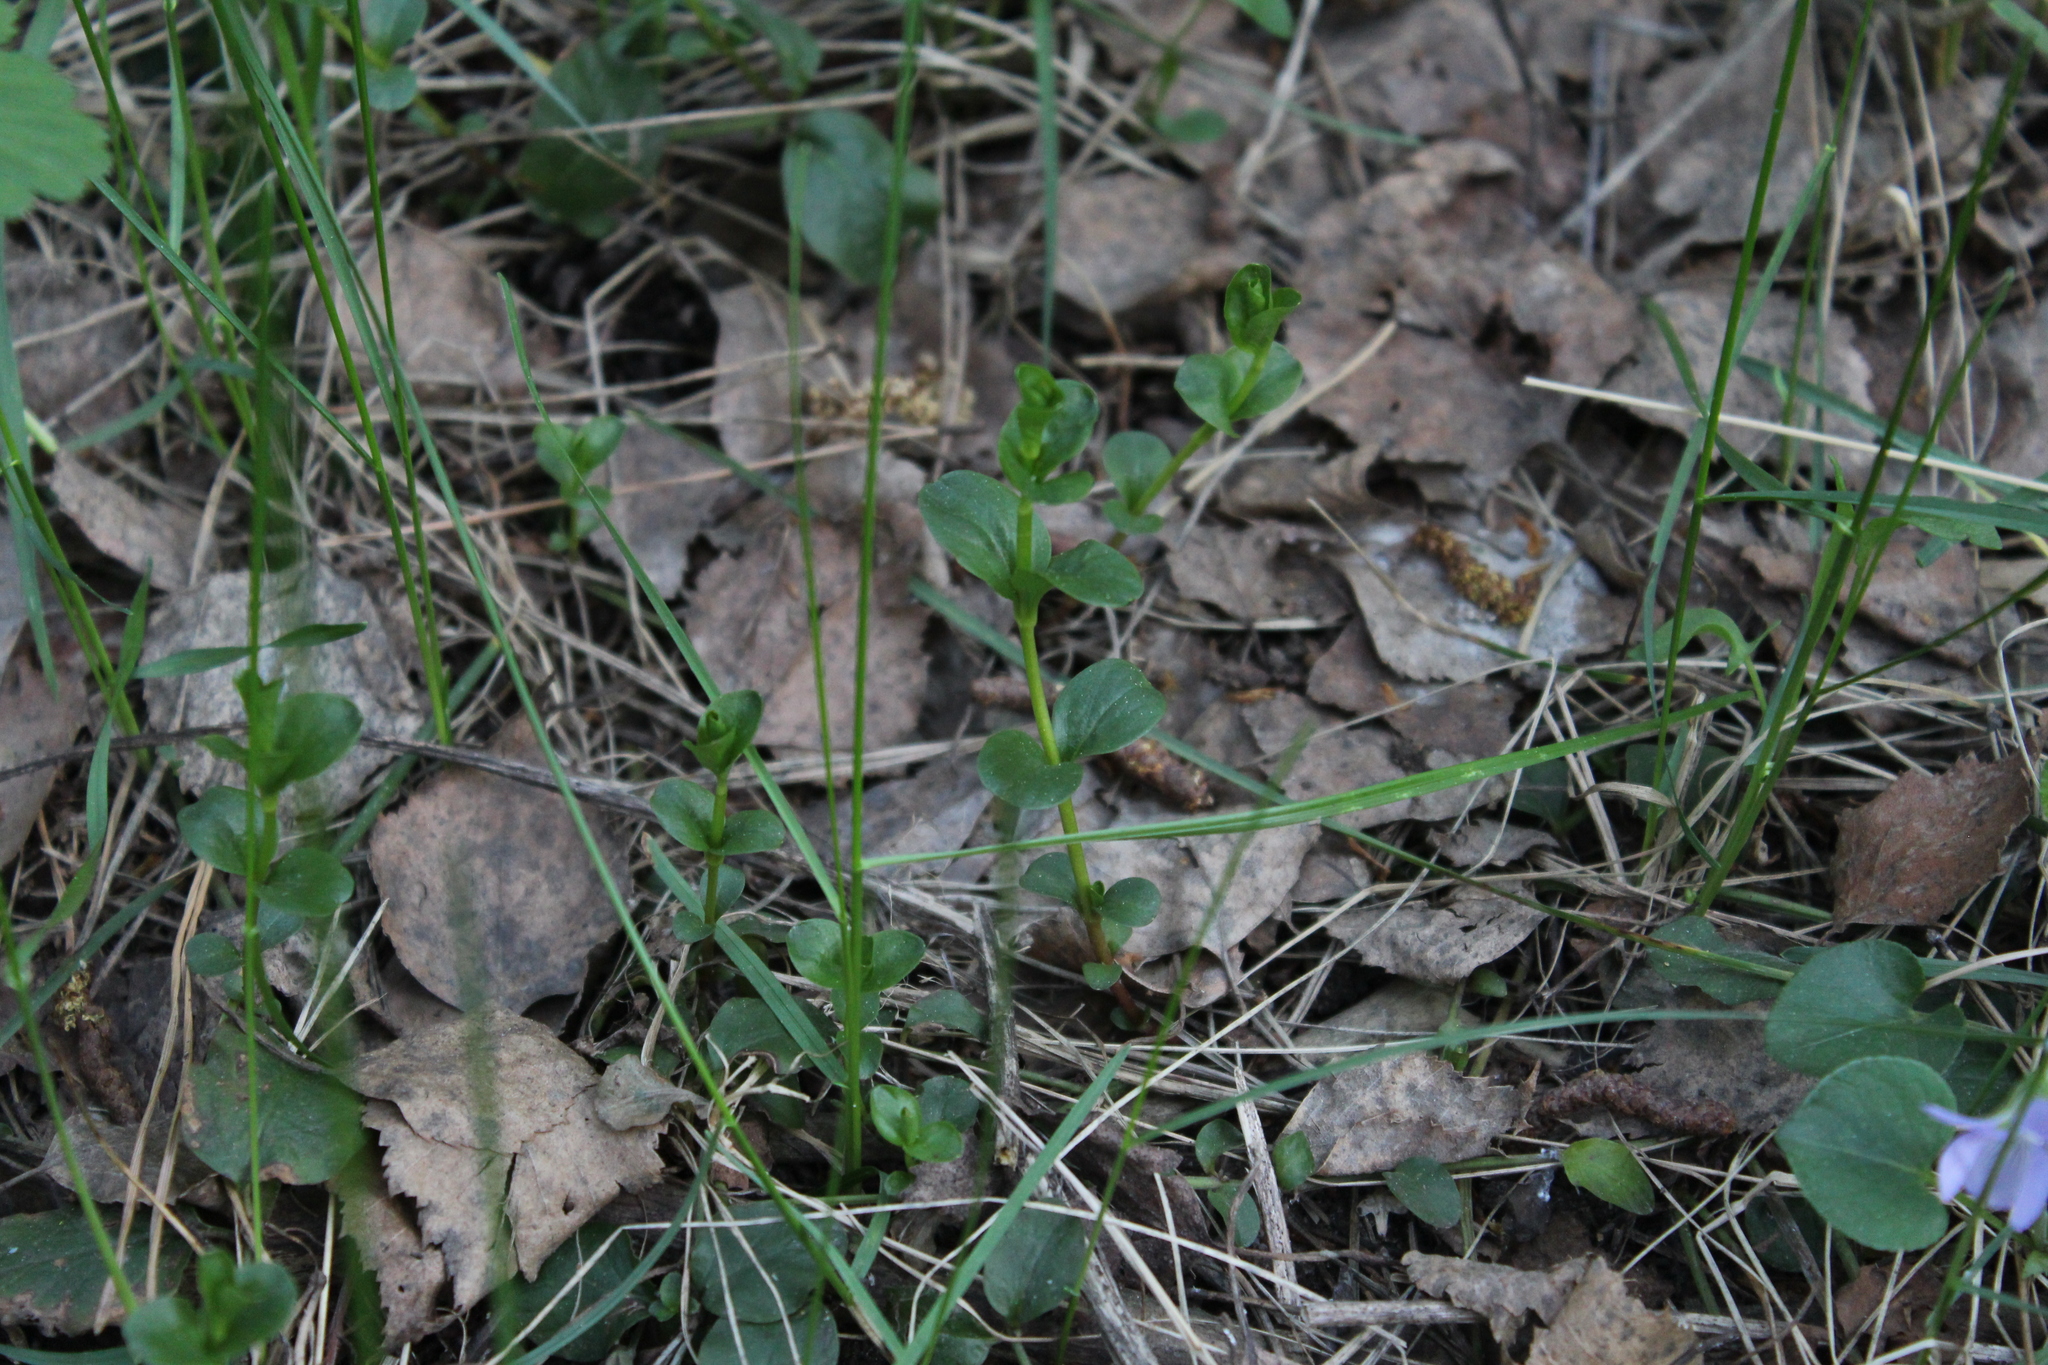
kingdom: Plantae
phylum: Tracheophyta
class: Magnoliopsida
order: Ericales
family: Primulaceae
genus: Lysimachia
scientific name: Lysimachia nummularia
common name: Moneywort
